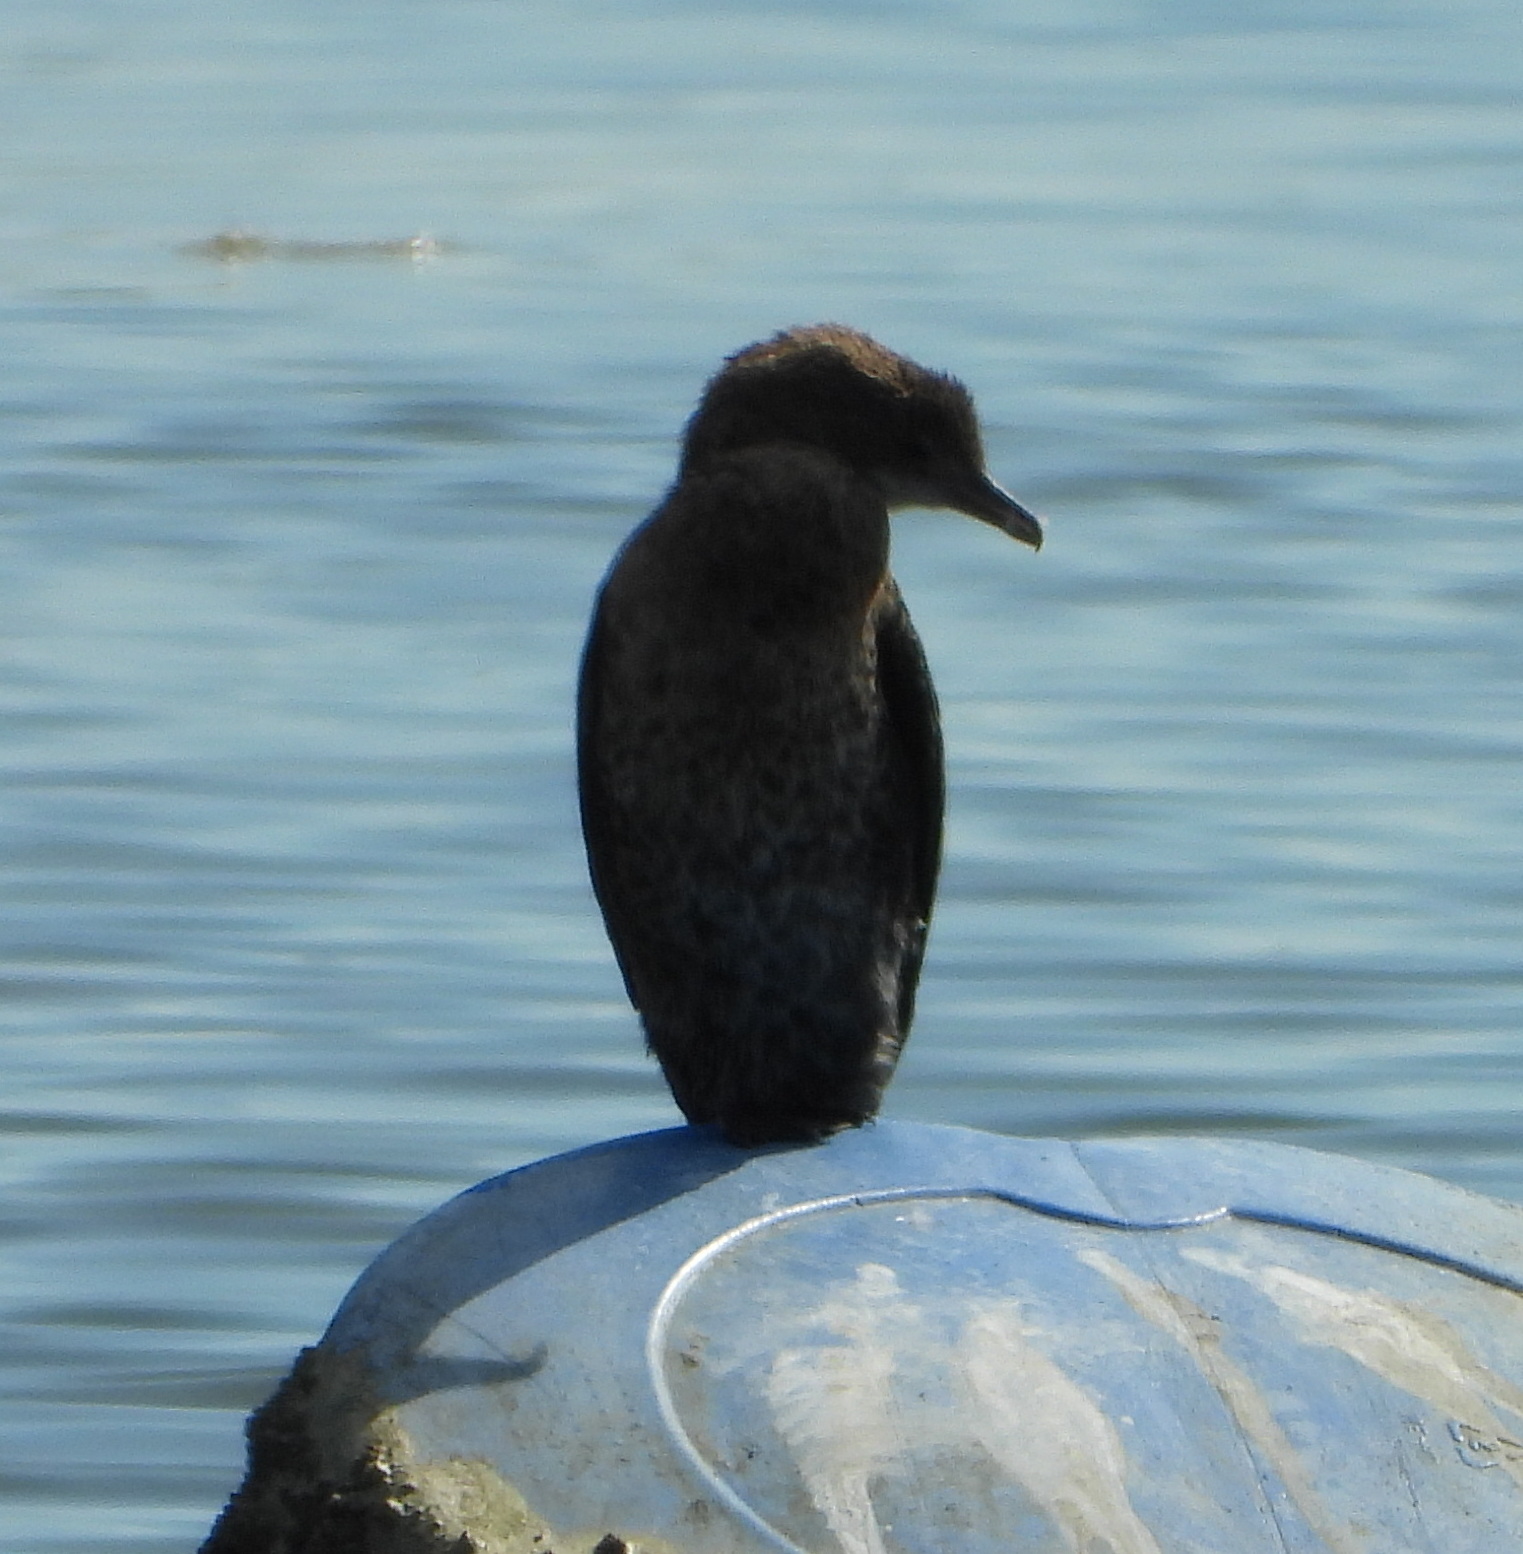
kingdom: Animalia
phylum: Chordata
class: Aves
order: Suliformes
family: Phalacrocoracidae
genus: Microcarbo
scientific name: Microcarbo pygmaeus
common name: Pygmy cormorant
